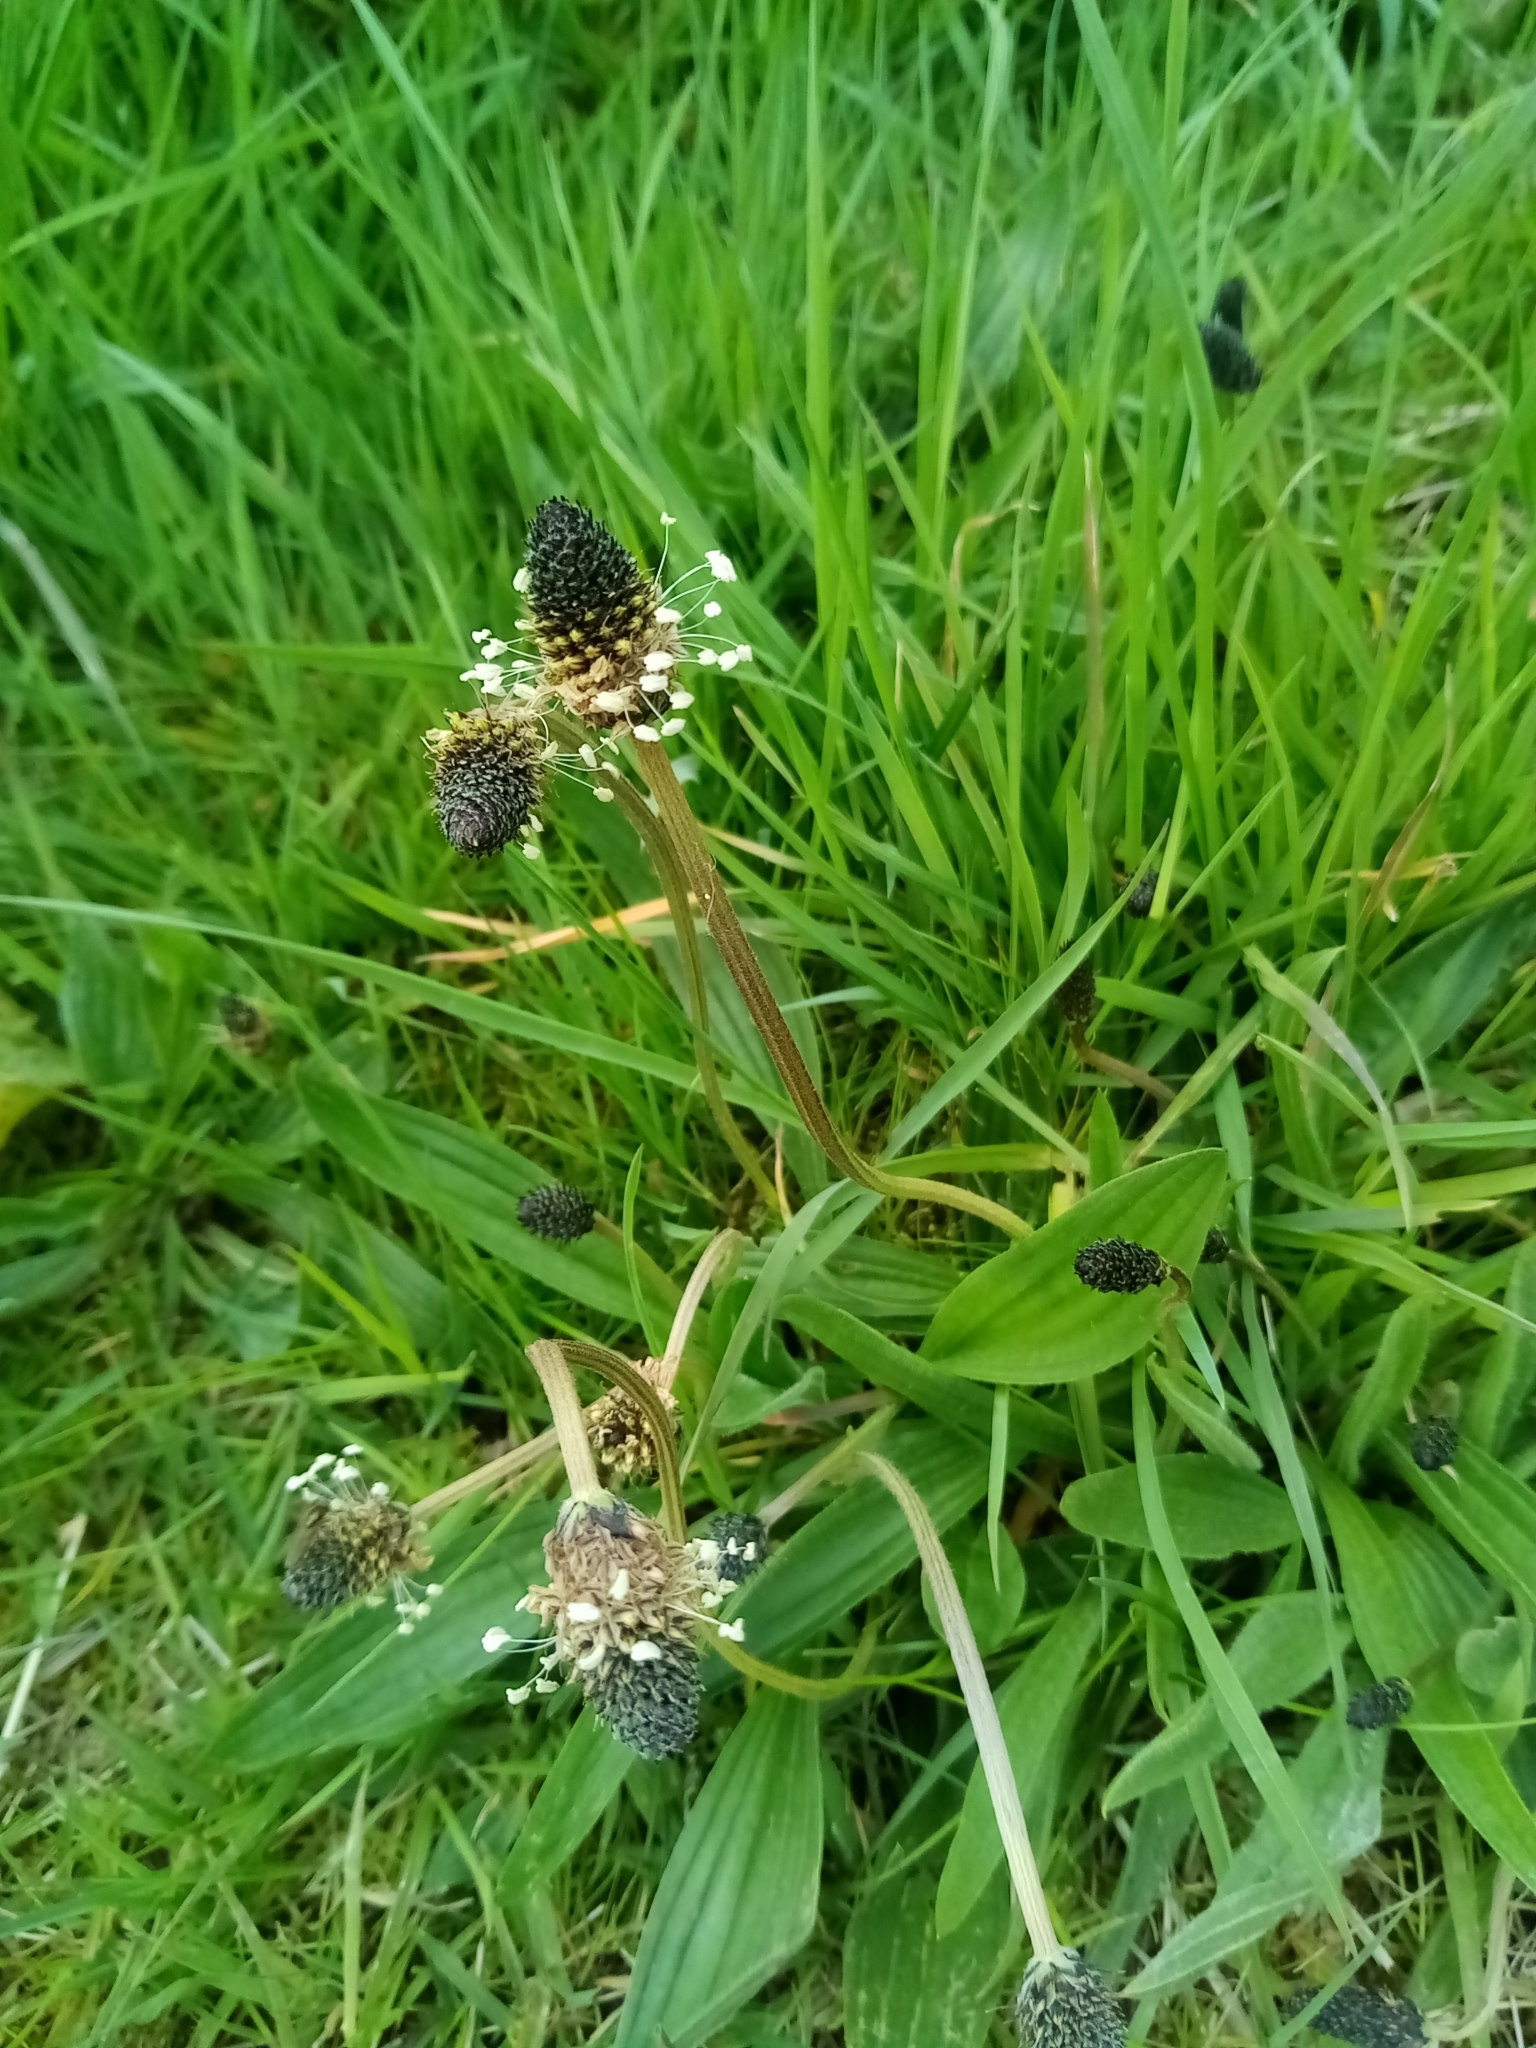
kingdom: Plantae
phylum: Tracheophyta
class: Magnoliopsida
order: Lamiales
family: Plantaginaceae
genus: Plantago
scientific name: Plantago lanceolata
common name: Ribwort plantain
